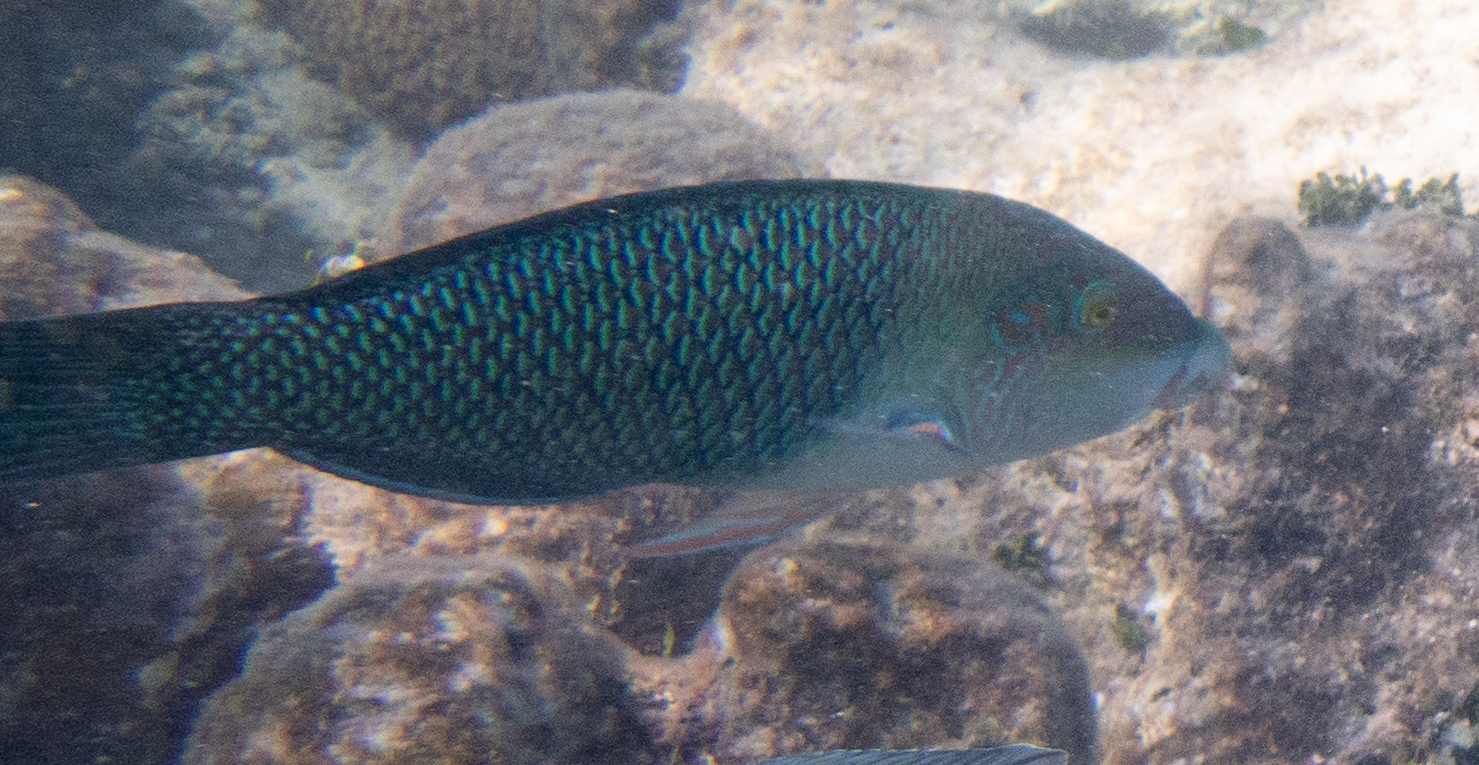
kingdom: Animalia
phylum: Chordata
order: Perciformes
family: Labridae
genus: Hemigymnus
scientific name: Hemigymnus melapterus
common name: Blackeye thicklip
